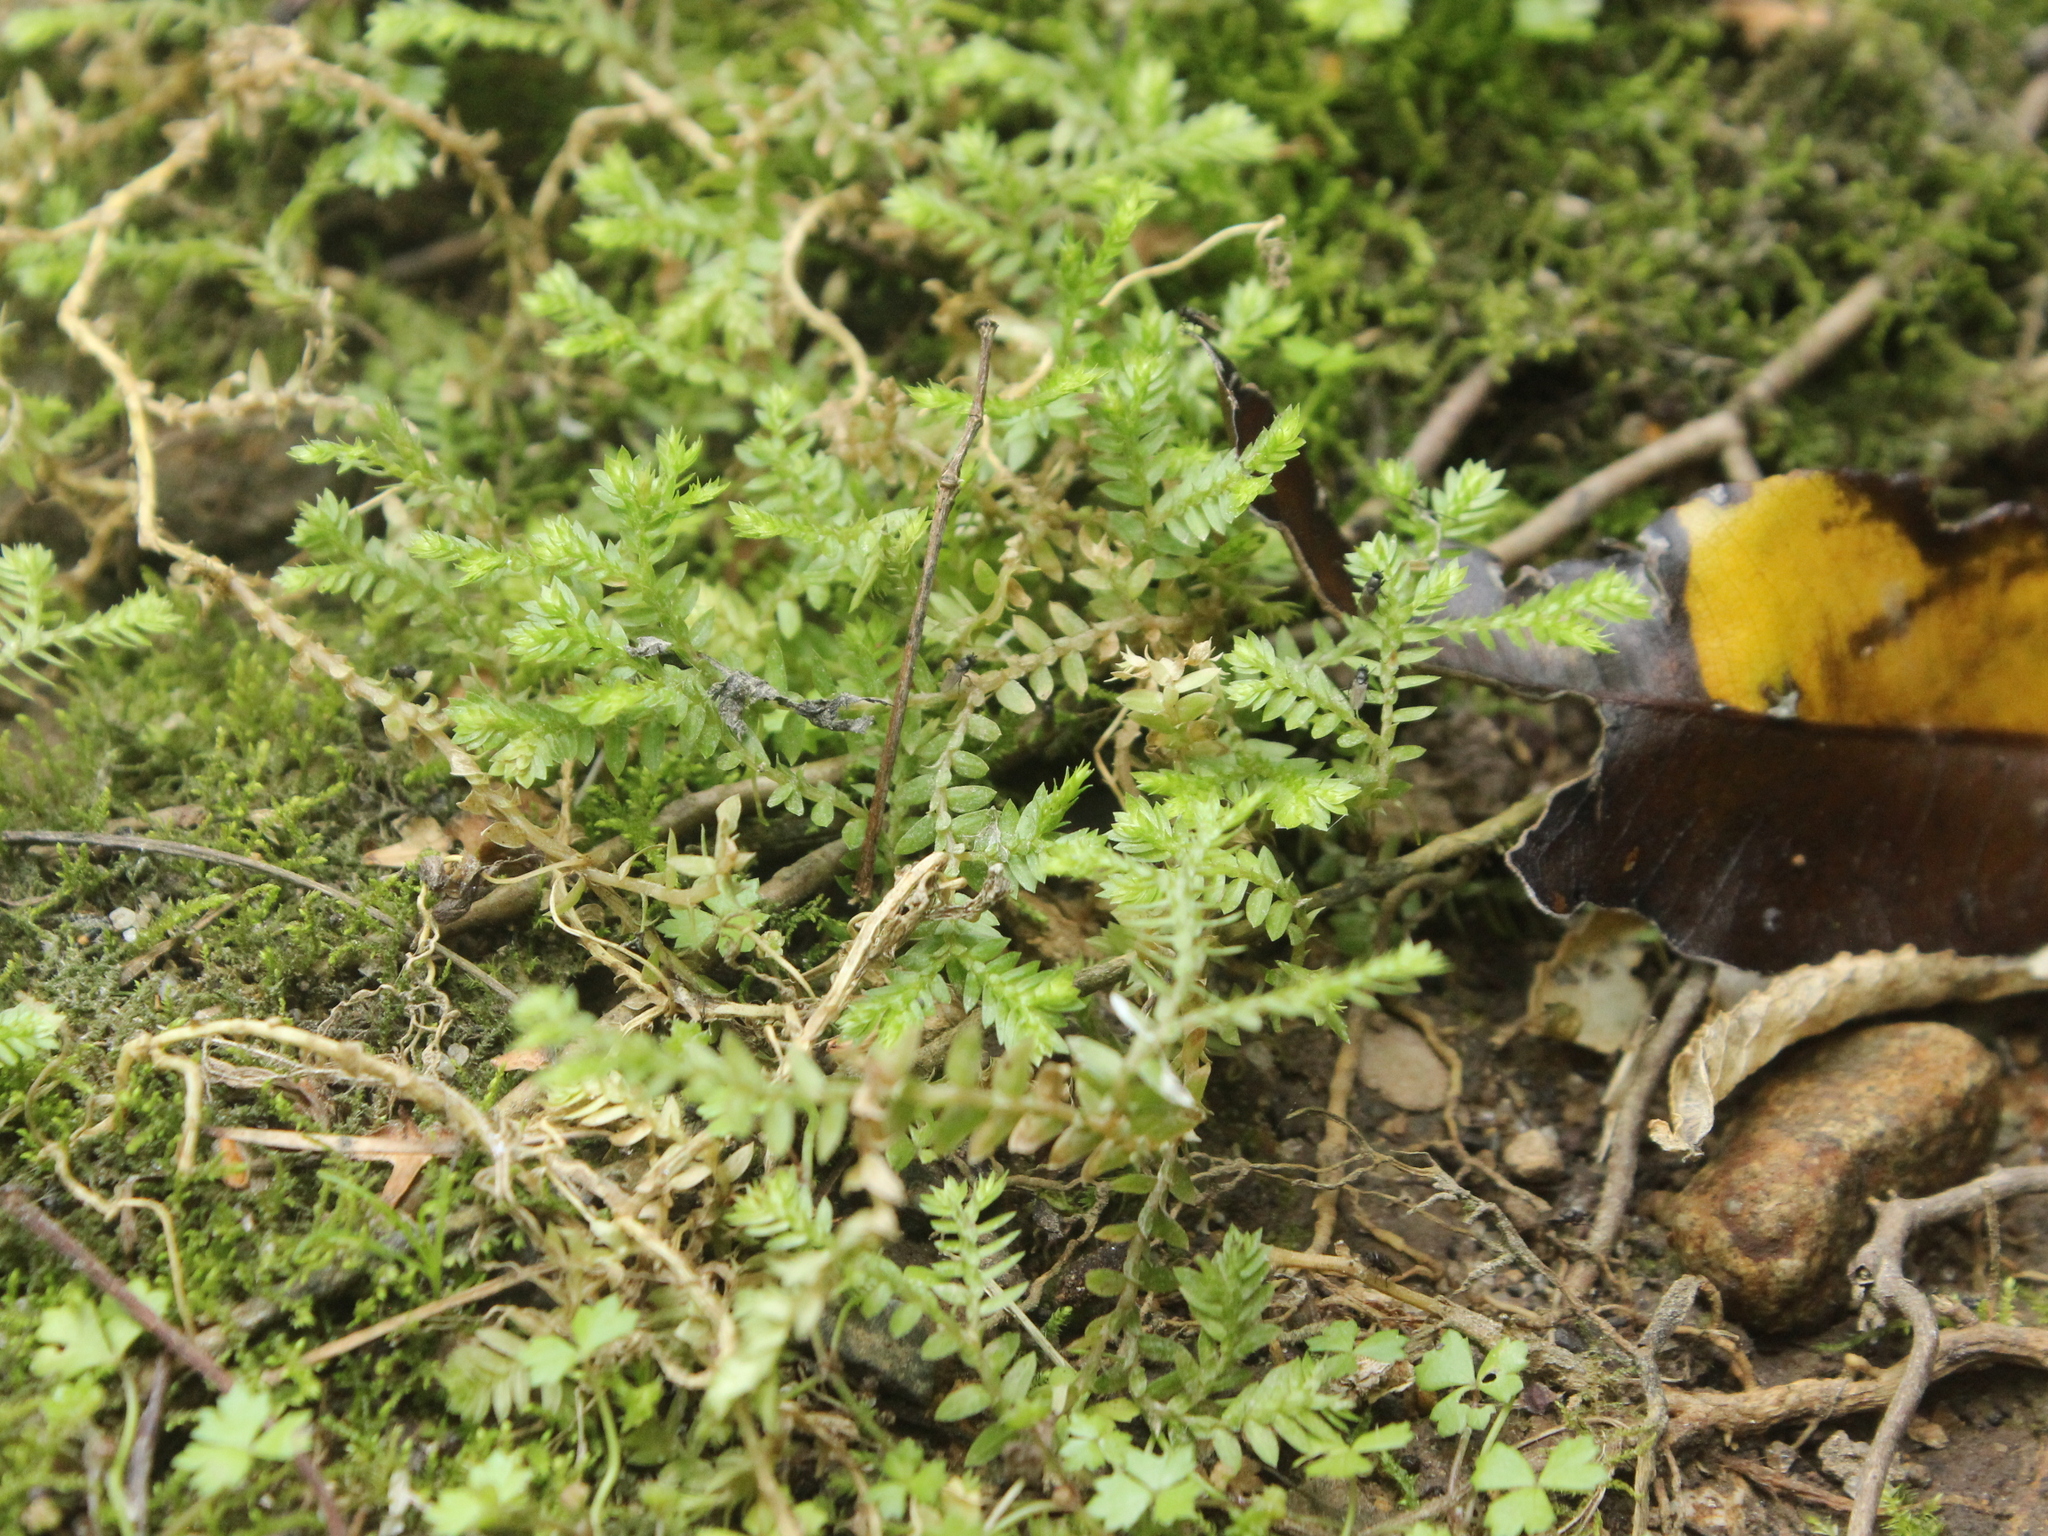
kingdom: Plantae
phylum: Tracheophyta
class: Lycopodiopsida
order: Selaginellales
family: Selaginellaceae
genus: Selaginella
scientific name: Selaginella kraussiana
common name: Krauss' spikemoss
